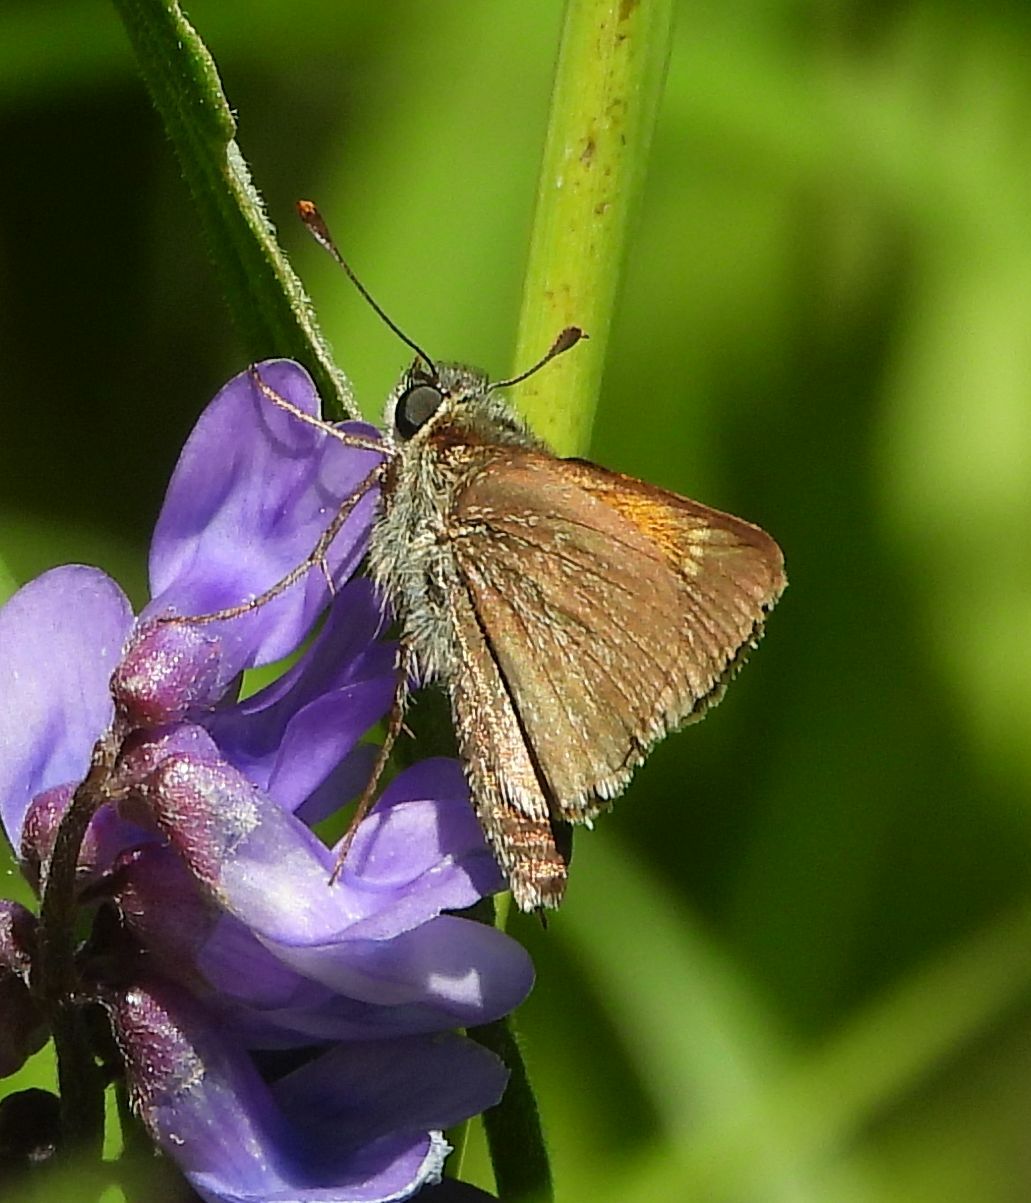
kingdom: Animalia
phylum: Arthropoda
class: Insecta
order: Lepidoptera
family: Hesperiidae
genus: Polites
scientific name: Polites themistocles
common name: Tawny-edged skipper
